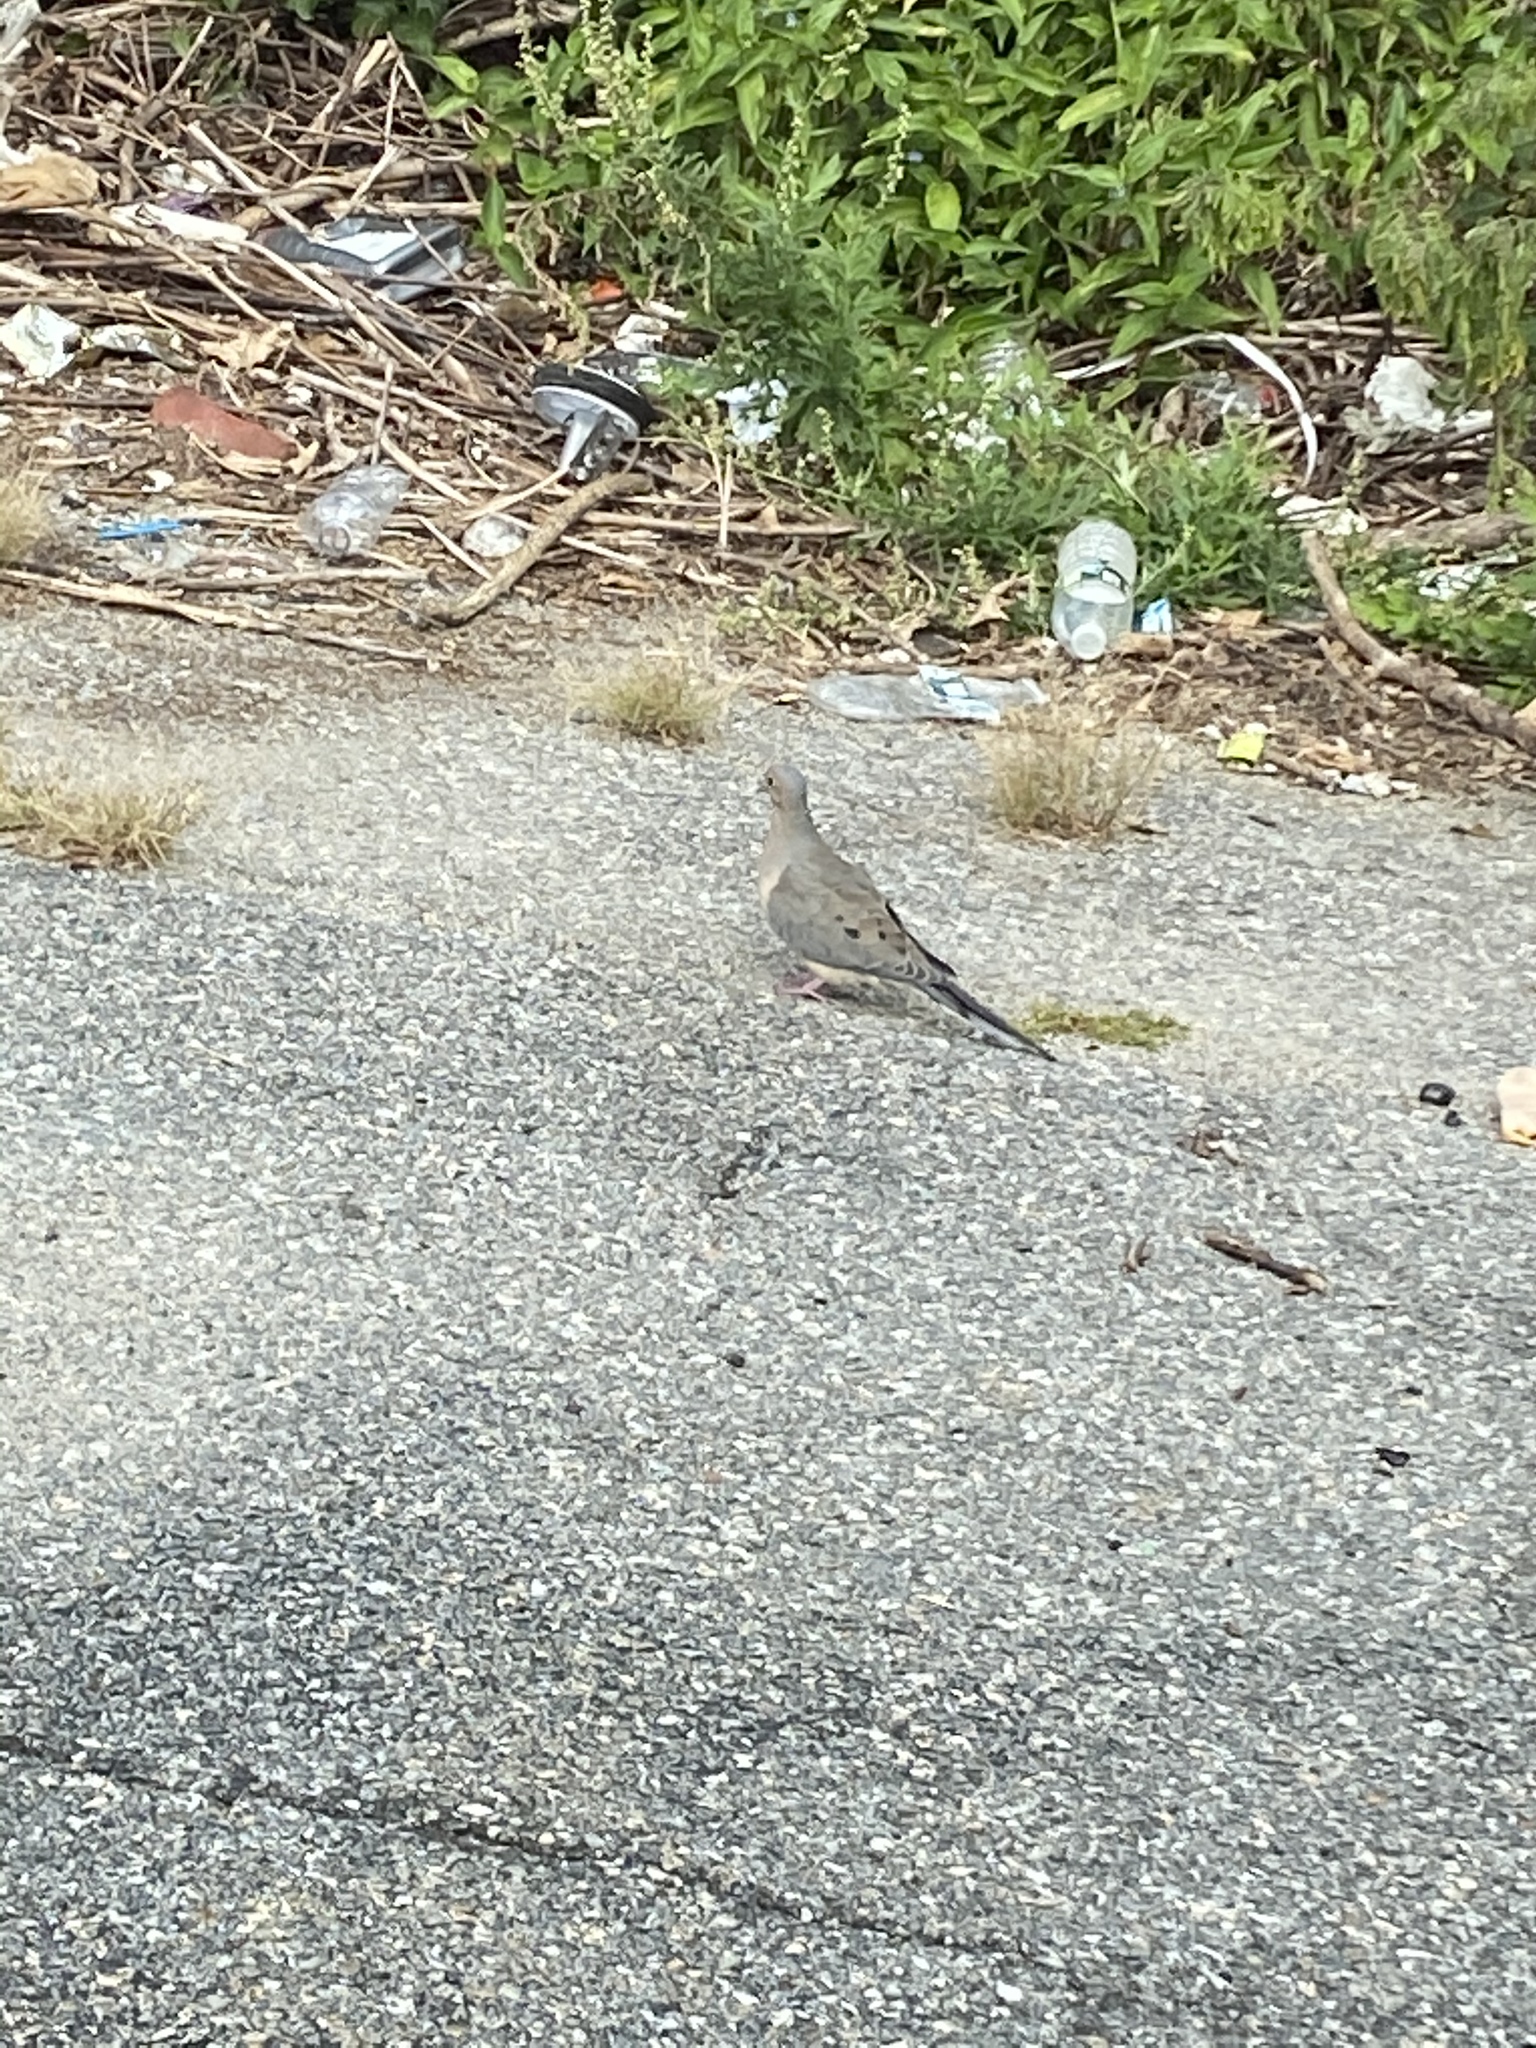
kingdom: Animalia
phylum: Chordata
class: Aves
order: Columbiformes
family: Columbidae
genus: Zenaida
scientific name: Zenaida macroura
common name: Mourning dove
